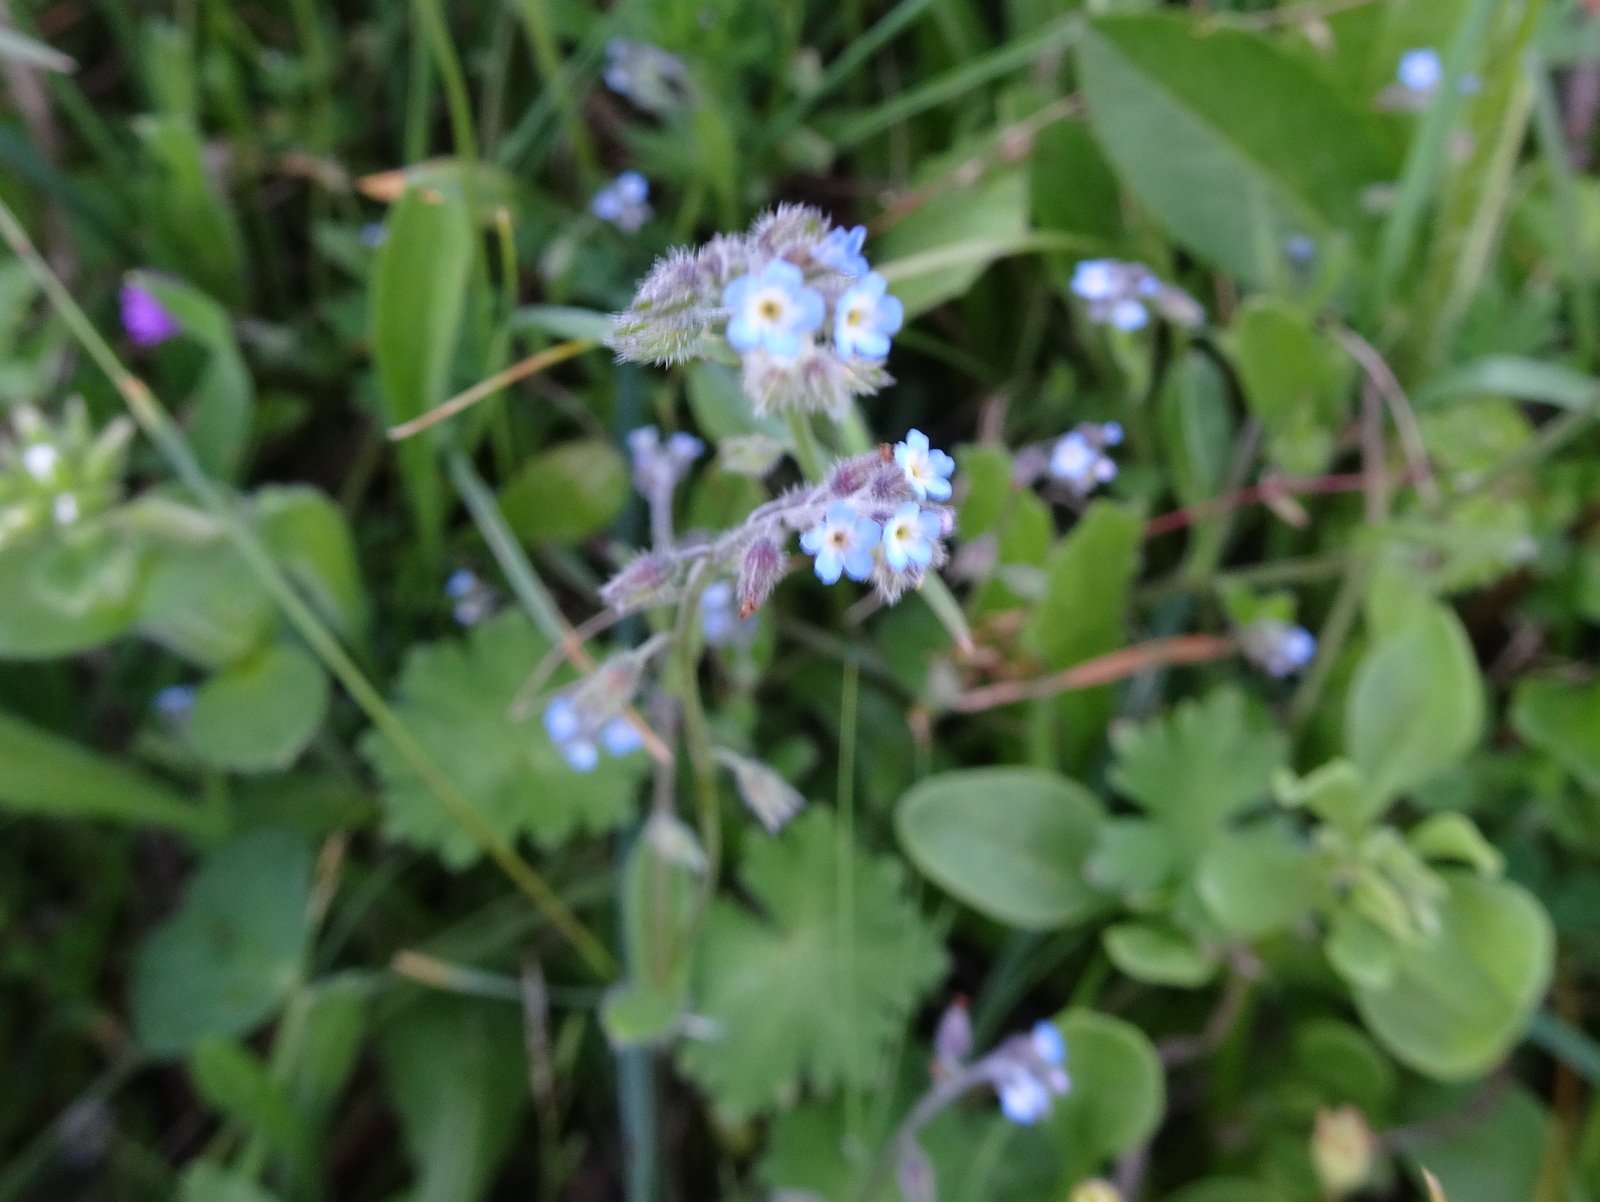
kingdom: Plantae
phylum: Tracheophyta
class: Magnoliopsida
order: Boraginales
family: Boraginaceae
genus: Myosotis
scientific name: Myosotis
